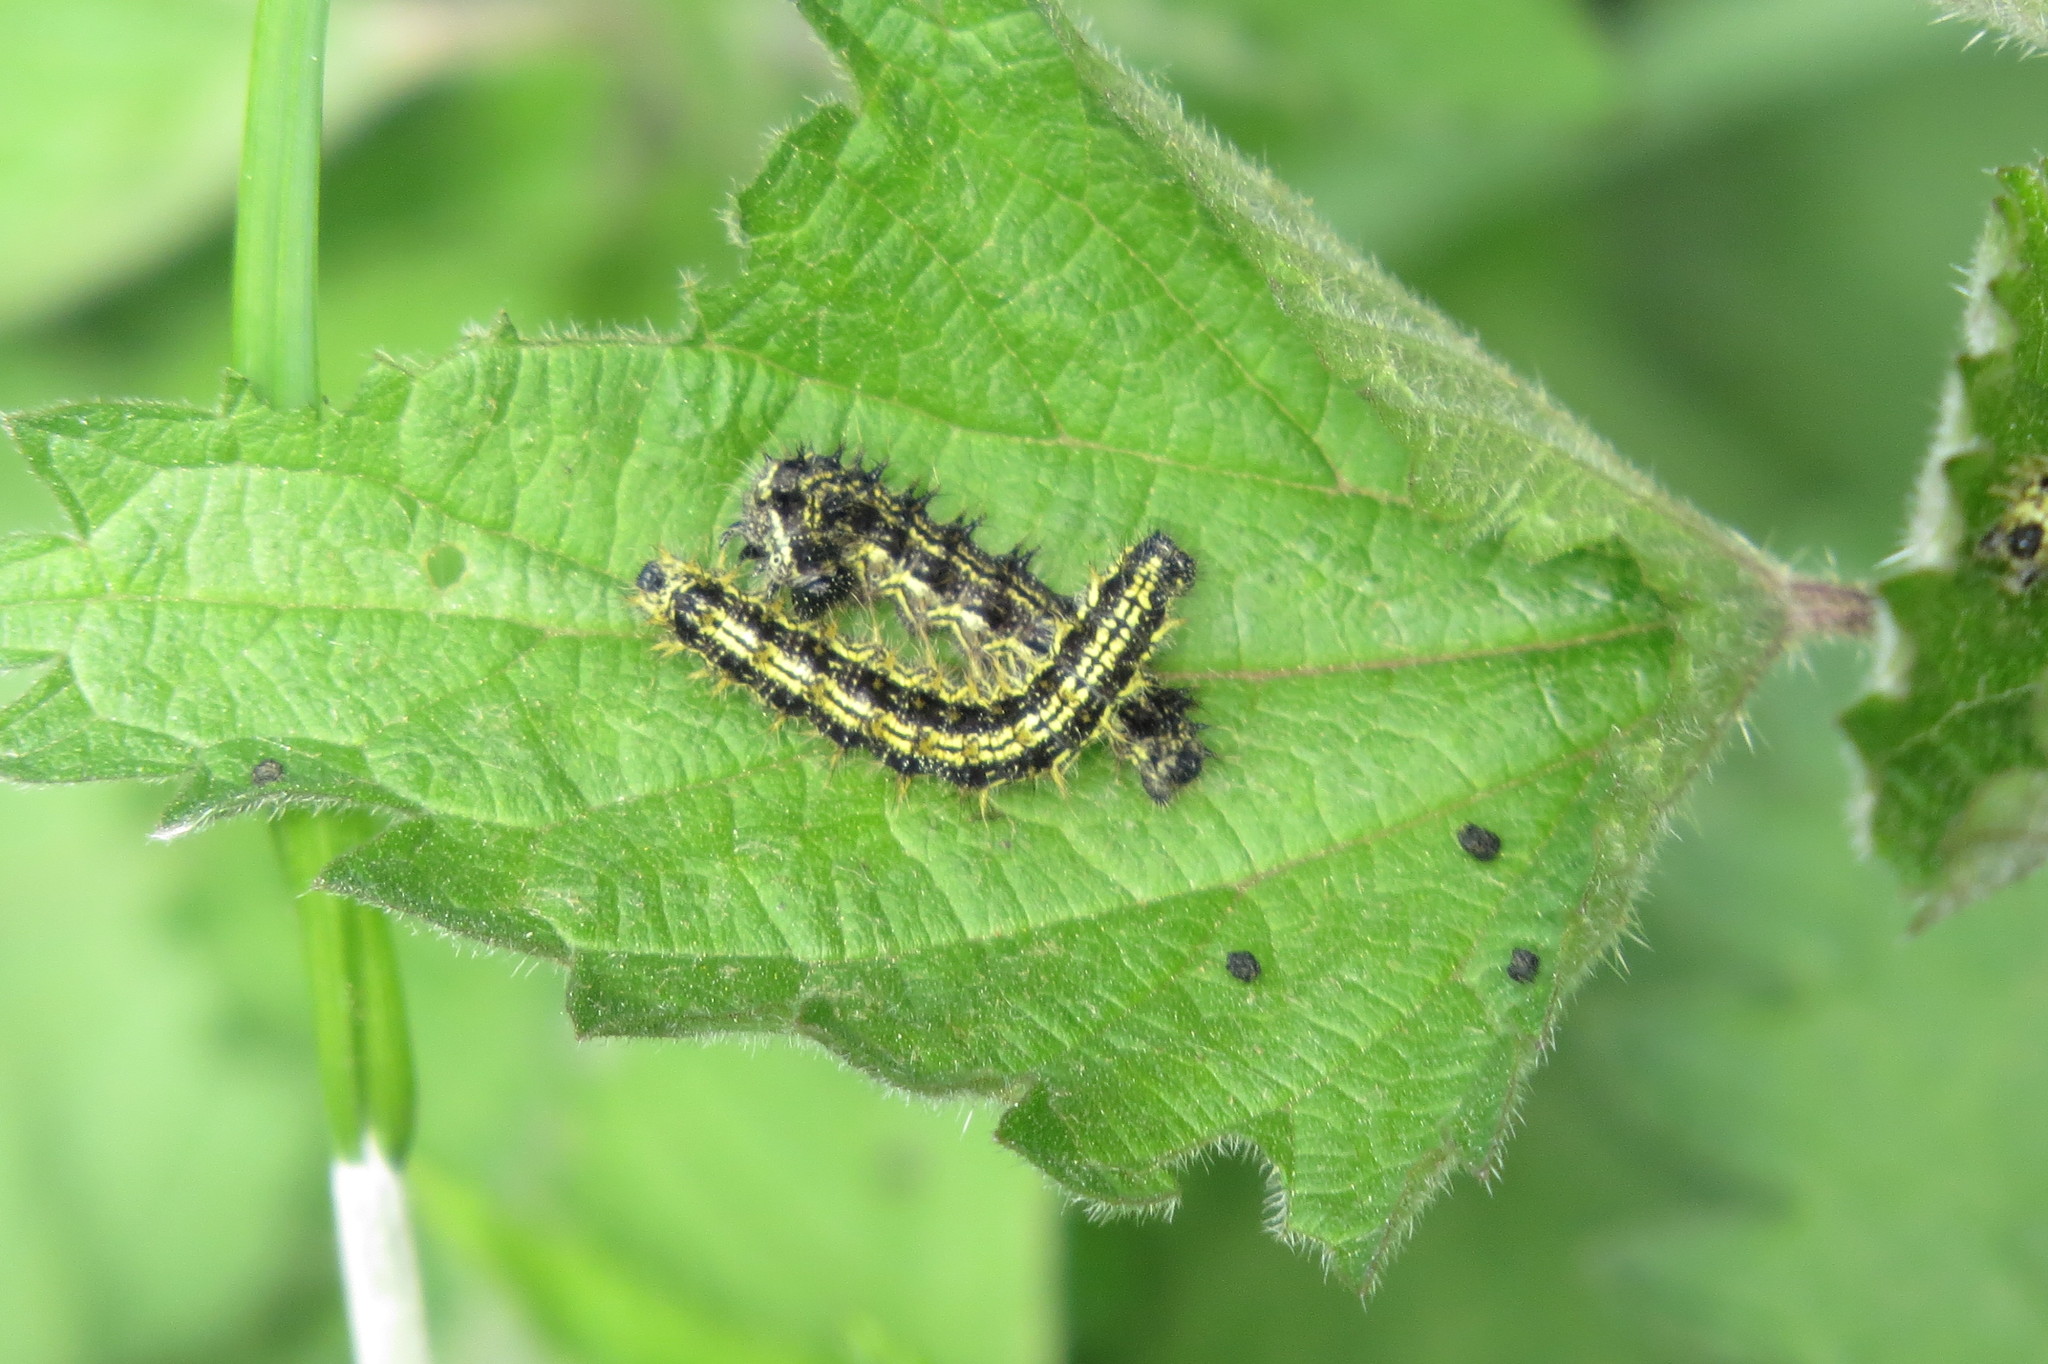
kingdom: Animalia
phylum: Arthropoda
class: Insecta
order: Lepidoptera
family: Nymphalidae
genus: Aglais
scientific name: Aglais urticae
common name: Small tortoiseshell
